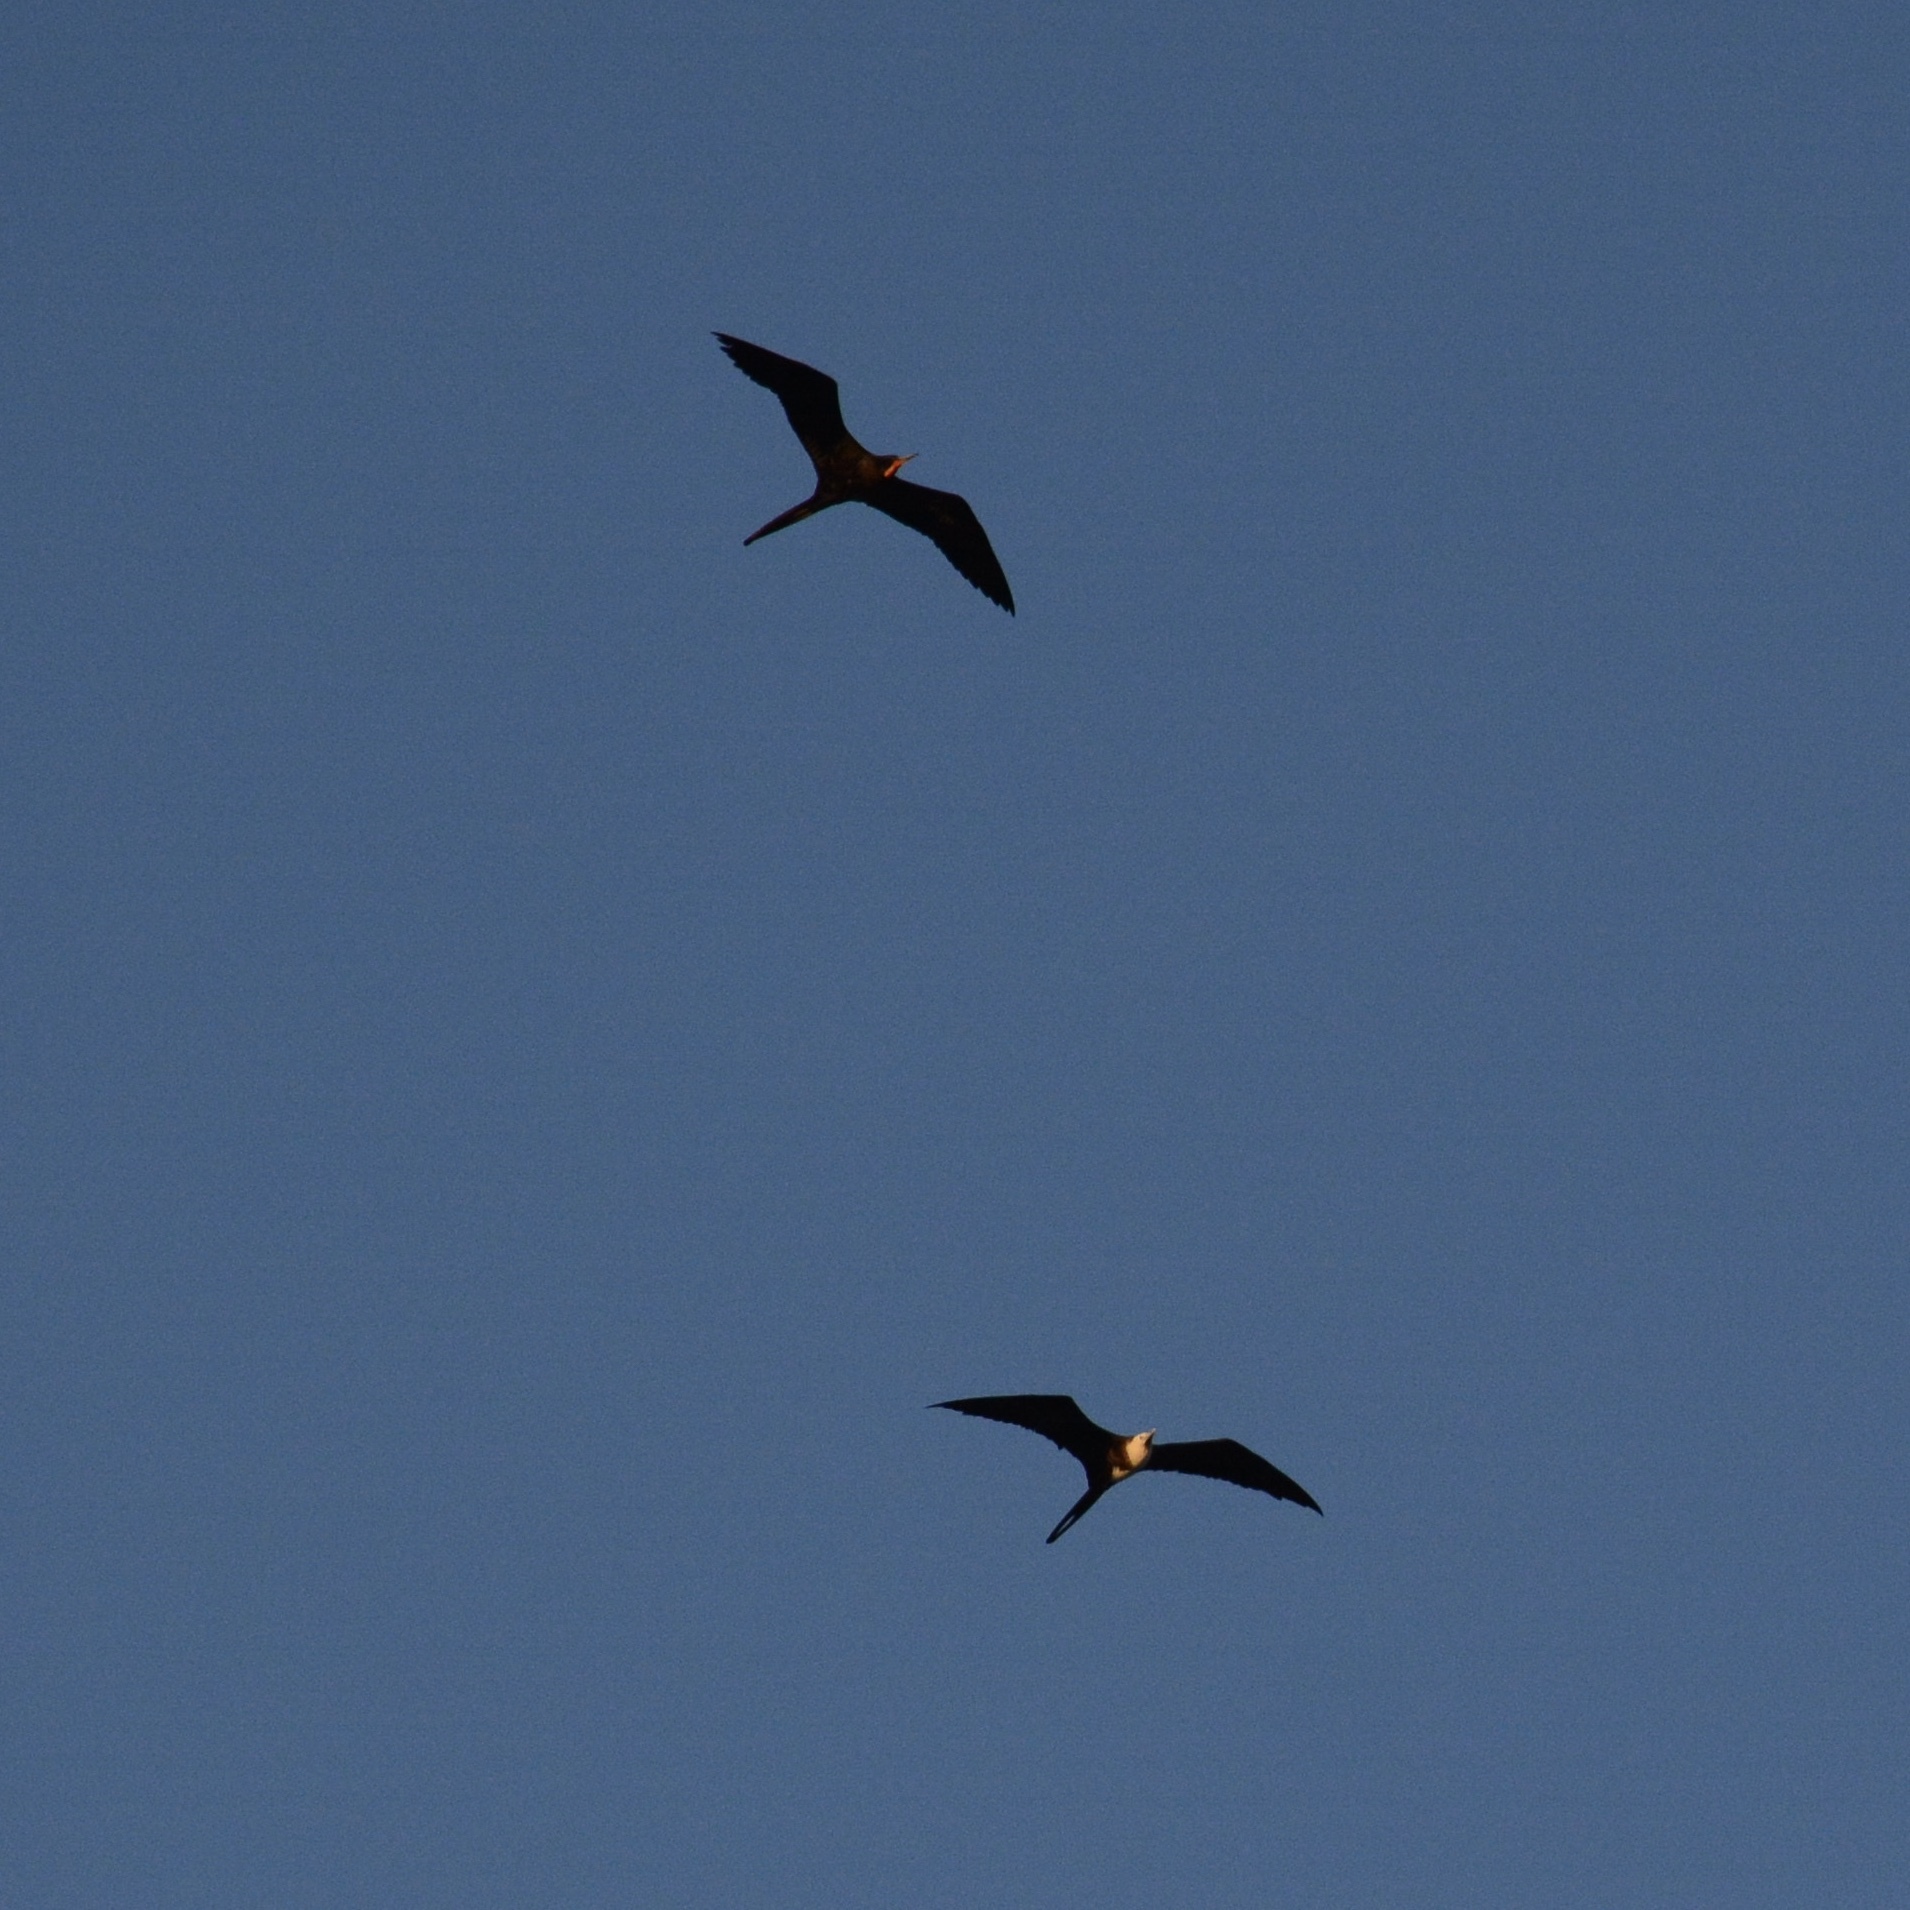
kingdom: Animalia
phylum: Chordata
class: Aves
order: Suliformes
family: Fregatidae
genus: Fregata
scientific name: Fregata magnificens
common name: Magnificent frigatebird
